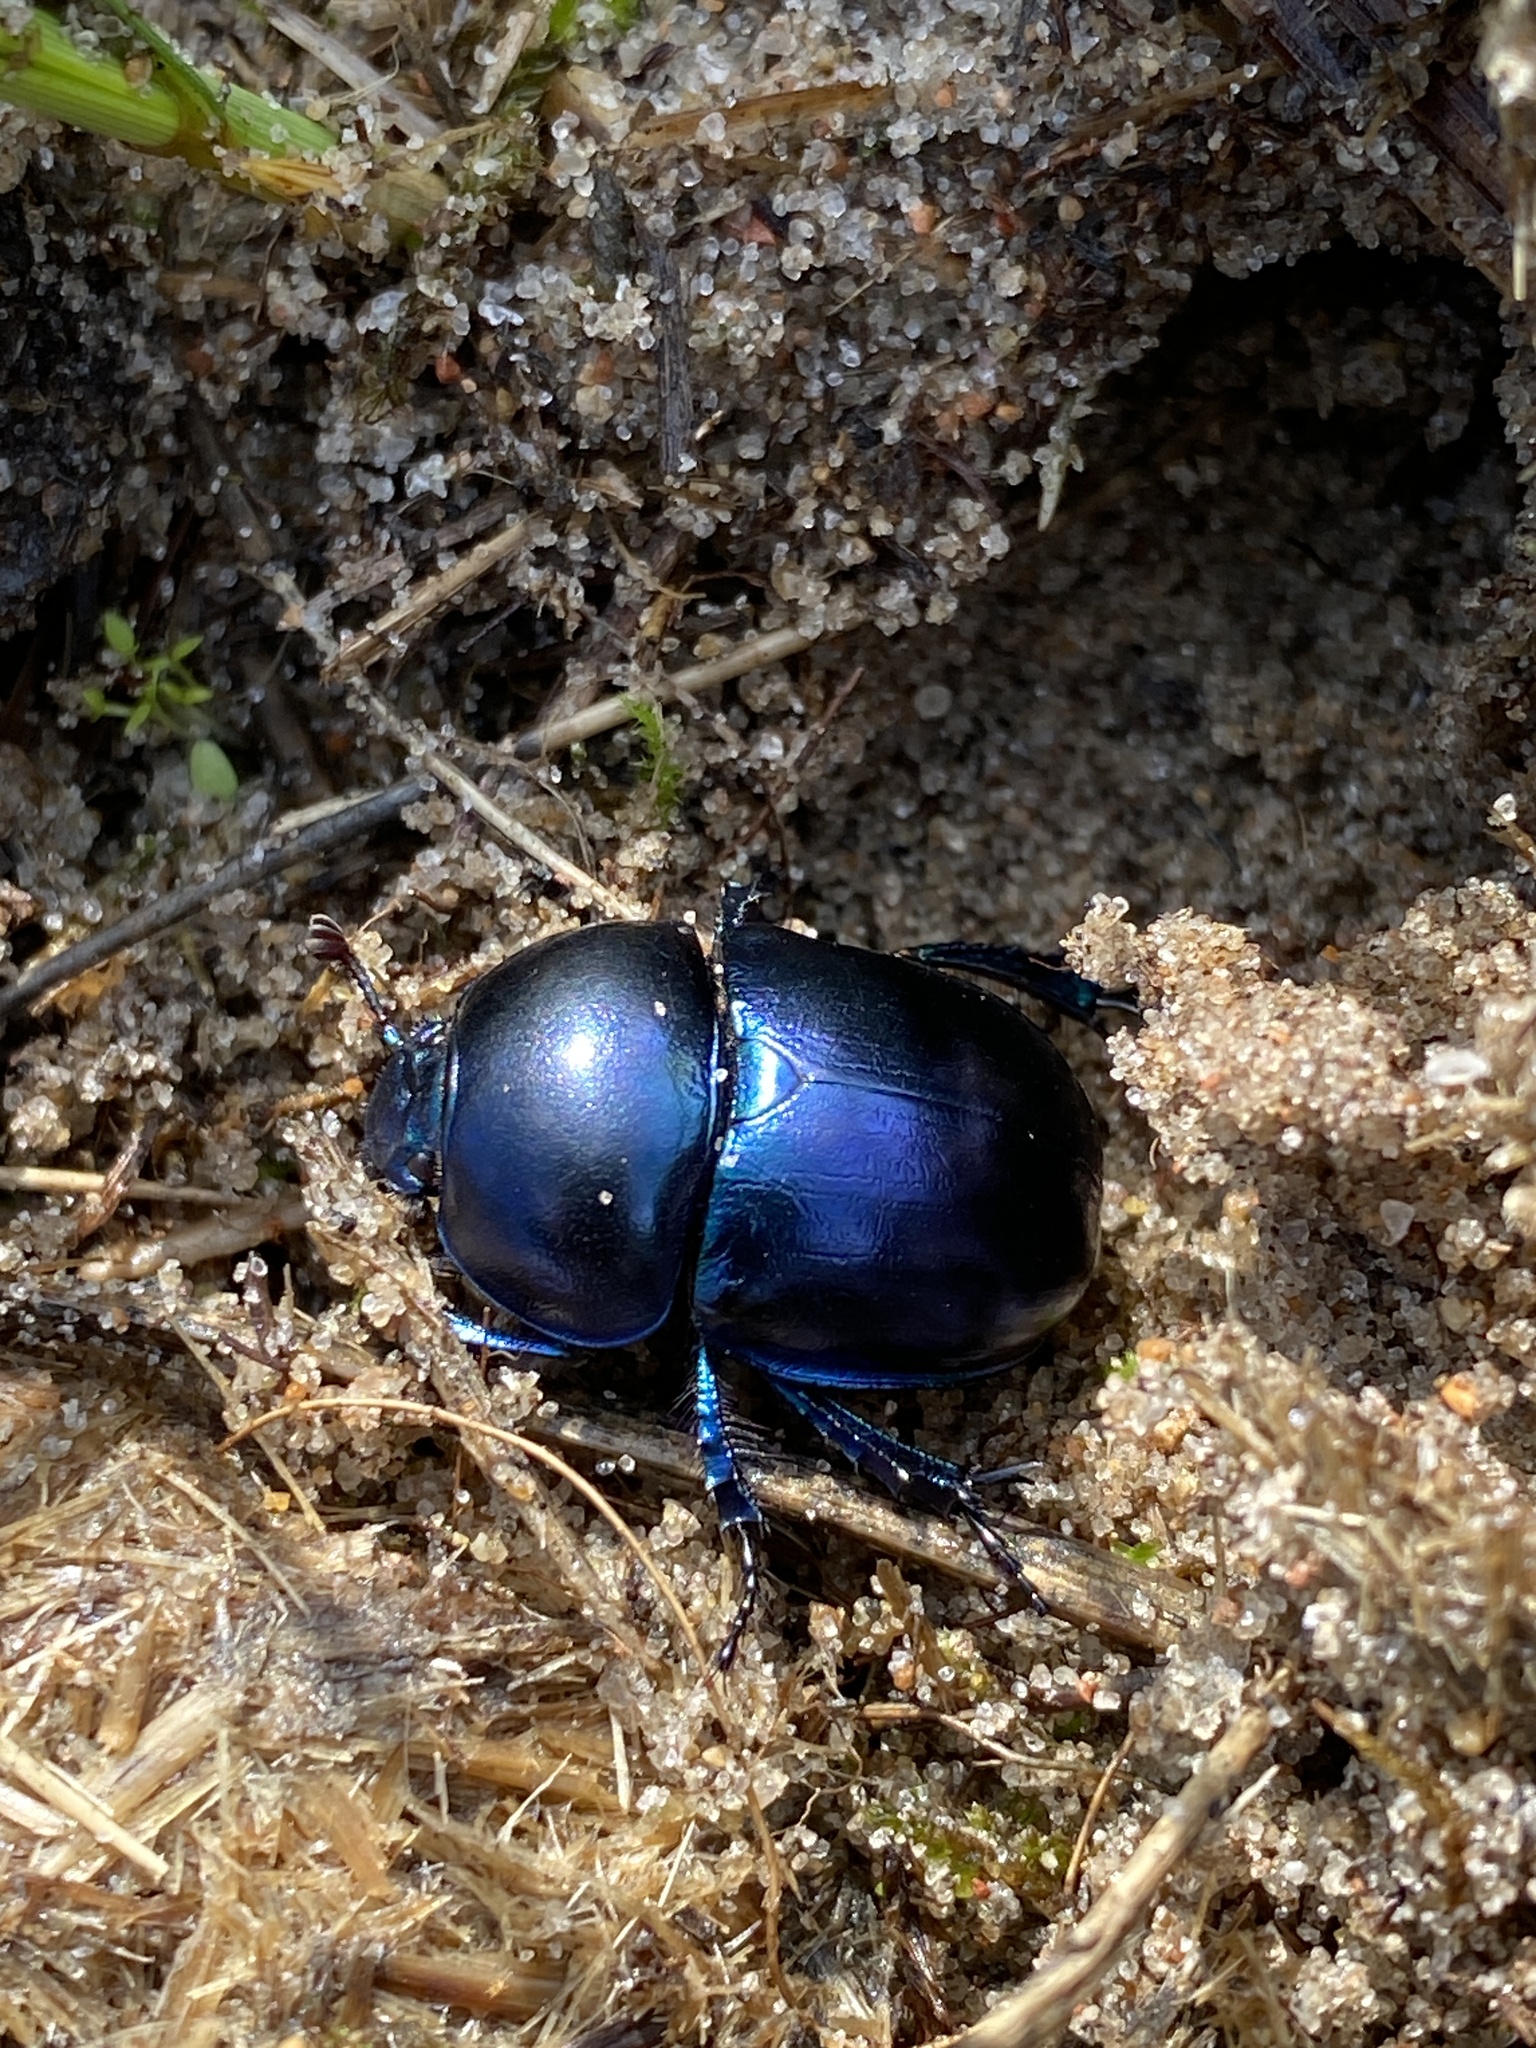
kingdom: Animalia
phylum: Arthropoda
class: Insecta
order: Coleoptera
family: Geotrupidae
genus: Trypocopris
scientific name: Trypocopris vernalis
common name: Spring dumbledor
